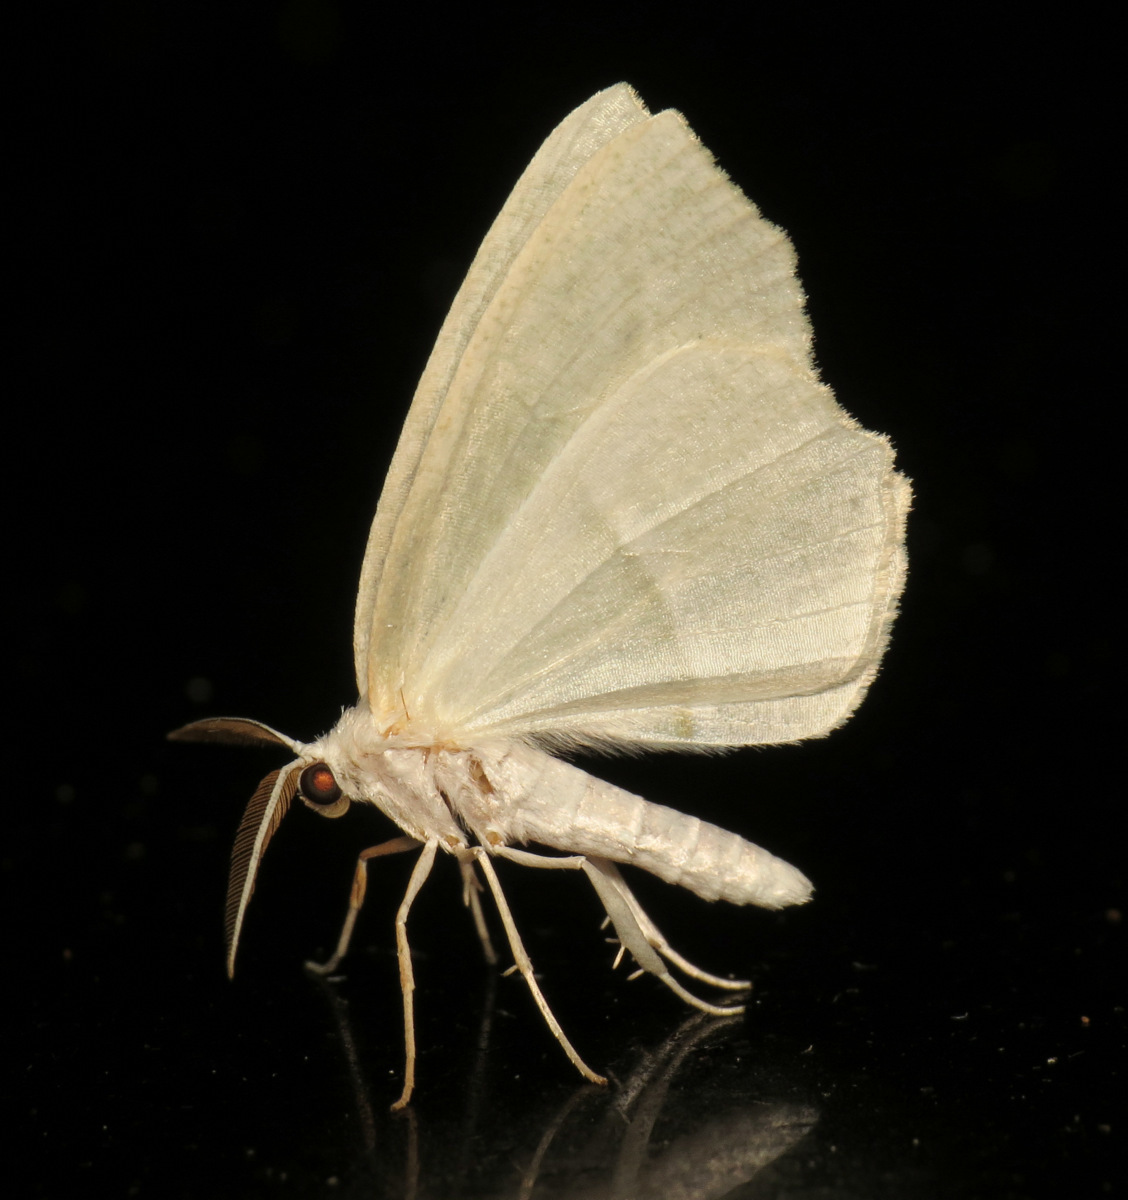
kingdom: Animalia
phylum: Arthropoda
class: Insecta
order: Lepidoptera
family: Geometridae
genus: Campaea
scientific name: Campaea perlata
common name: Fringed looper
